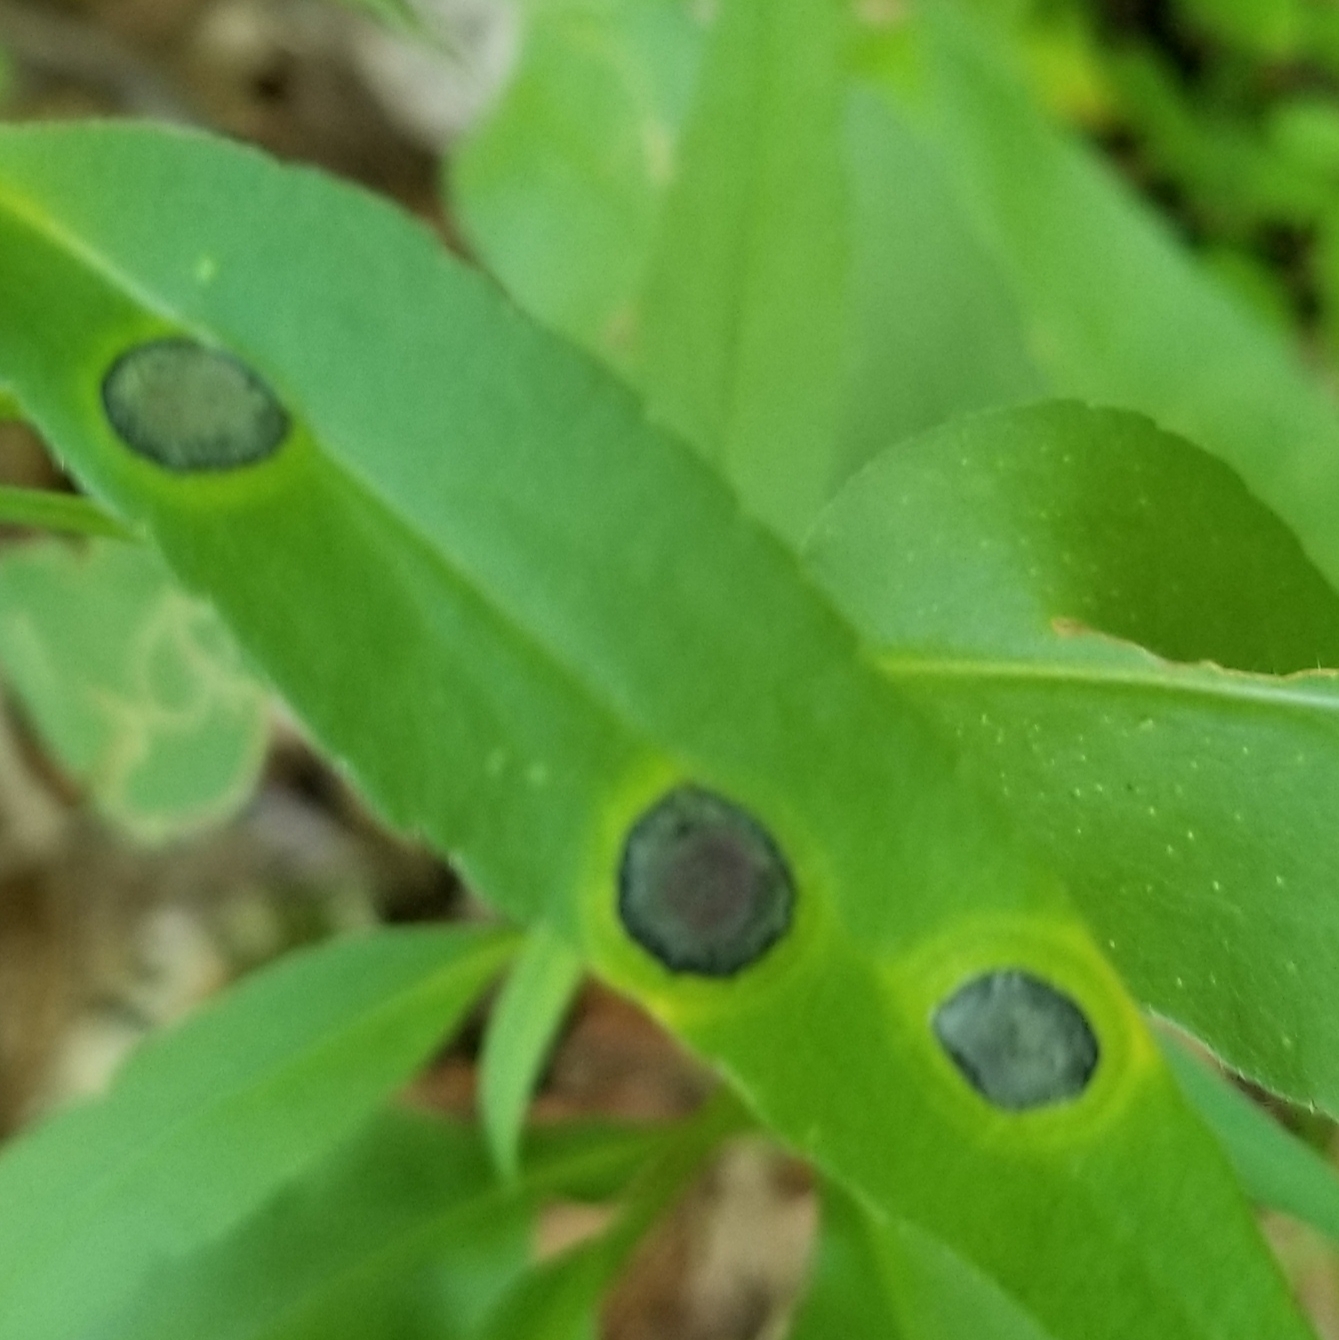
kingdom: Animalia
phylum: Arthropoda
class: Insecta
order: Diptera
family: Cecidomyiidae
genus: Asteromyia
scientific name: Asteromyia laeviana
